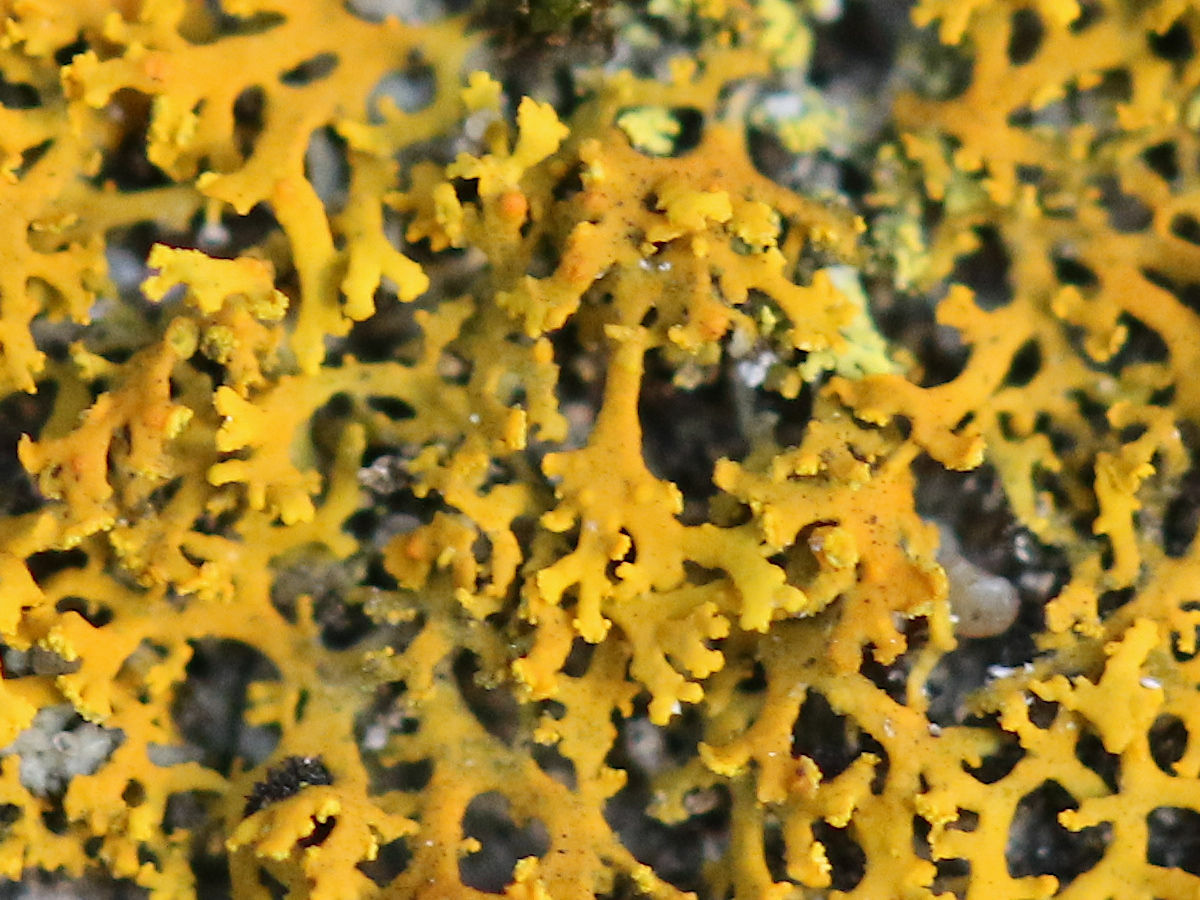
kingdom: Fungi
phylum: Ascomycota
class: Lecanoromycetes
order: Teloschistales
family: Teloschistaceae
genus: Gallowayella
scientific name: Gallowayella weberi
